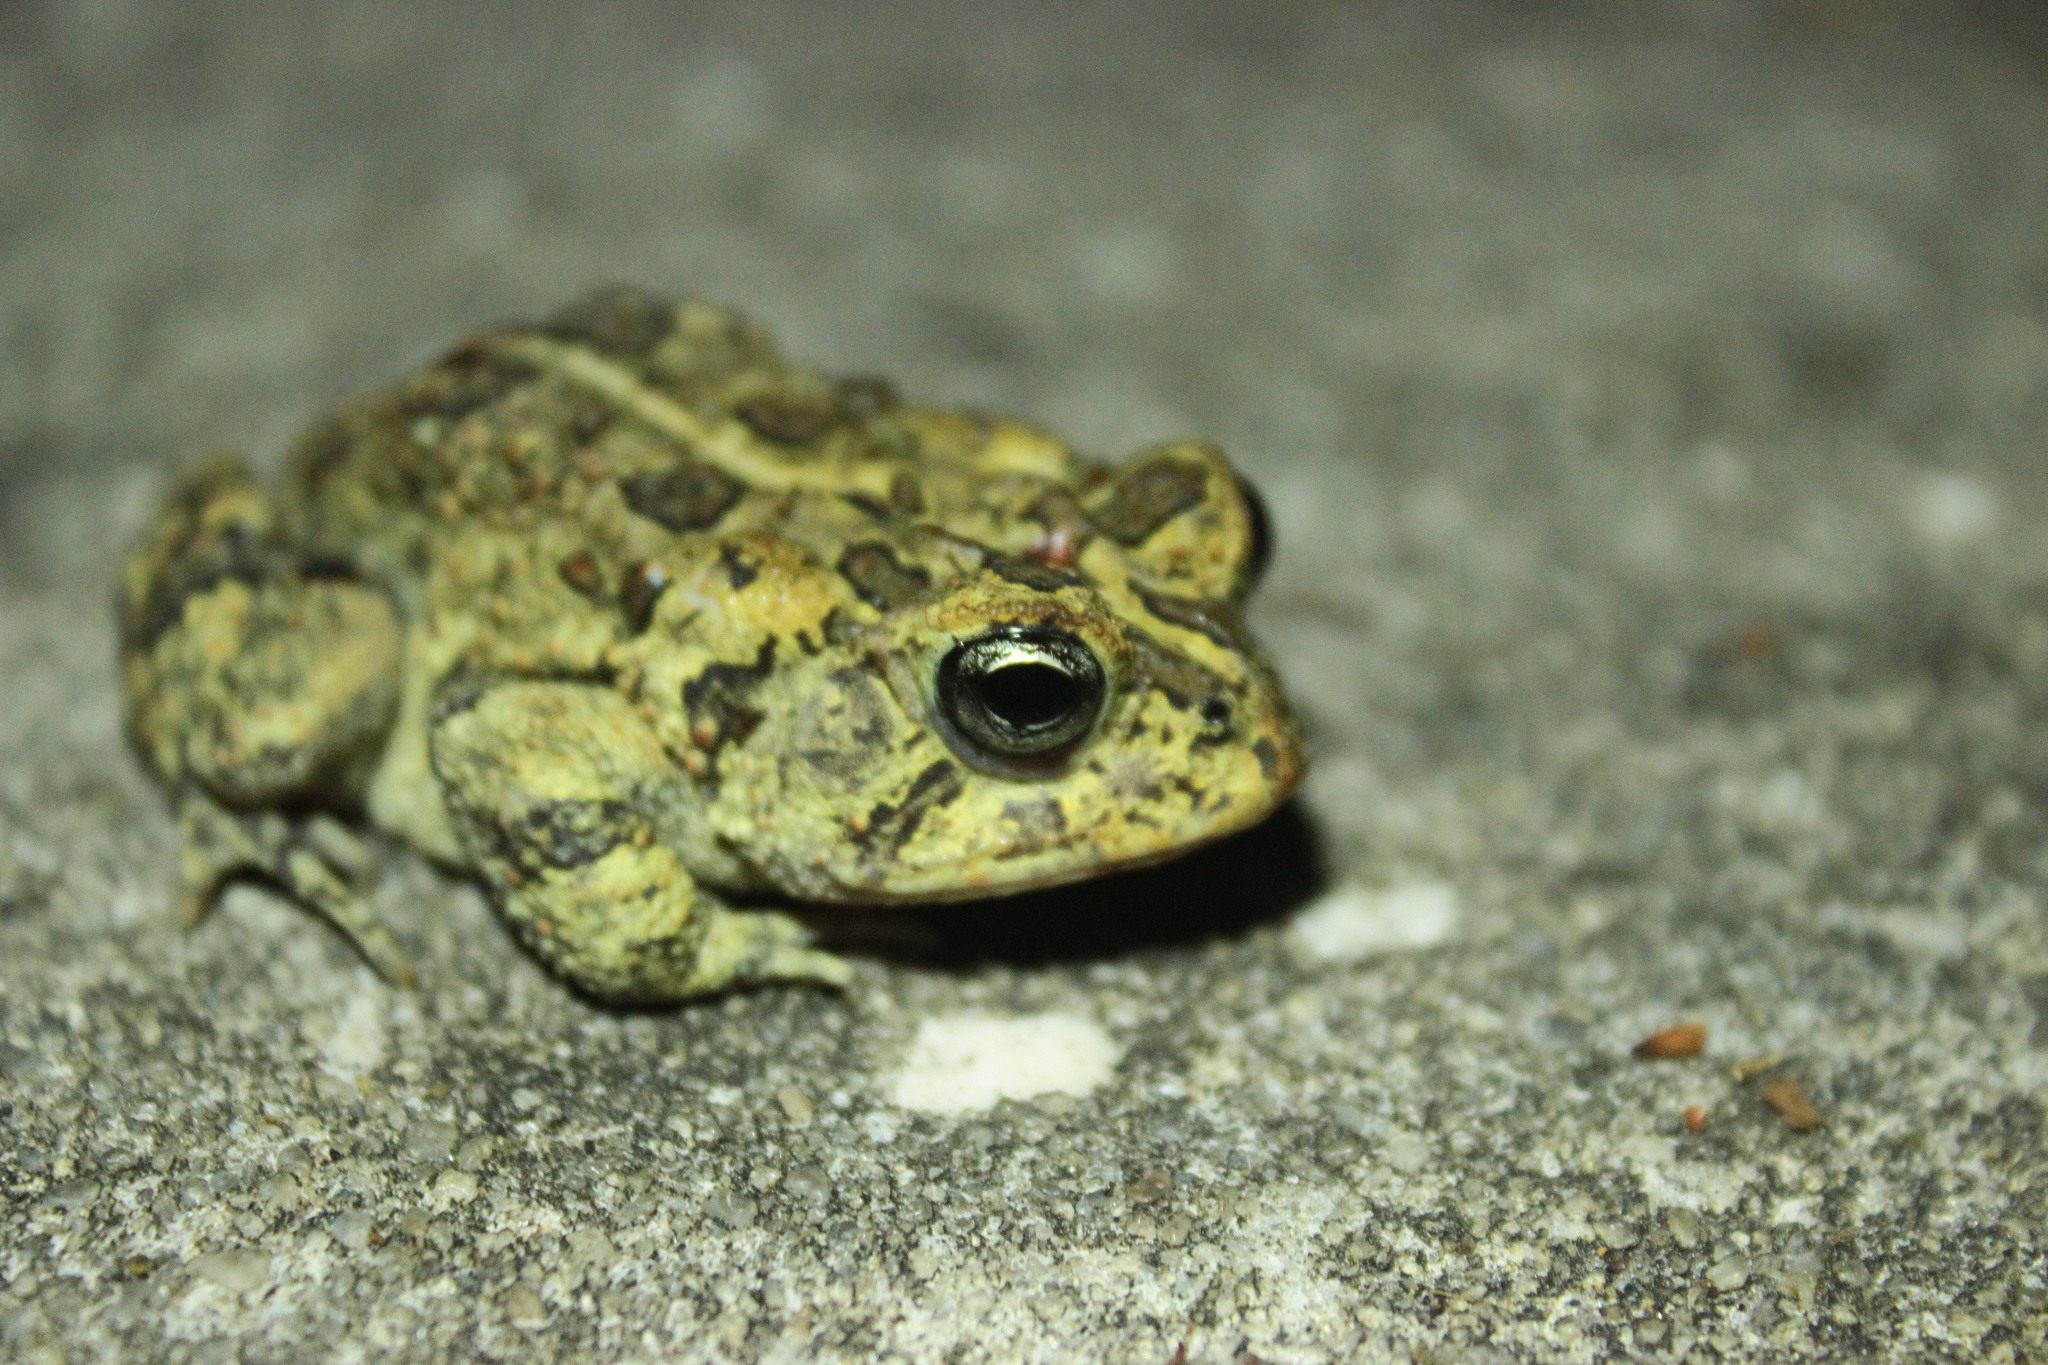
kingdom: Animalia
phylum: Chordata
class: Amphibia
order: Anura
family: Bufonidae
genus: Anaxyrus
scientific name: Anaxyrus terrestris
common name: Southern toad
